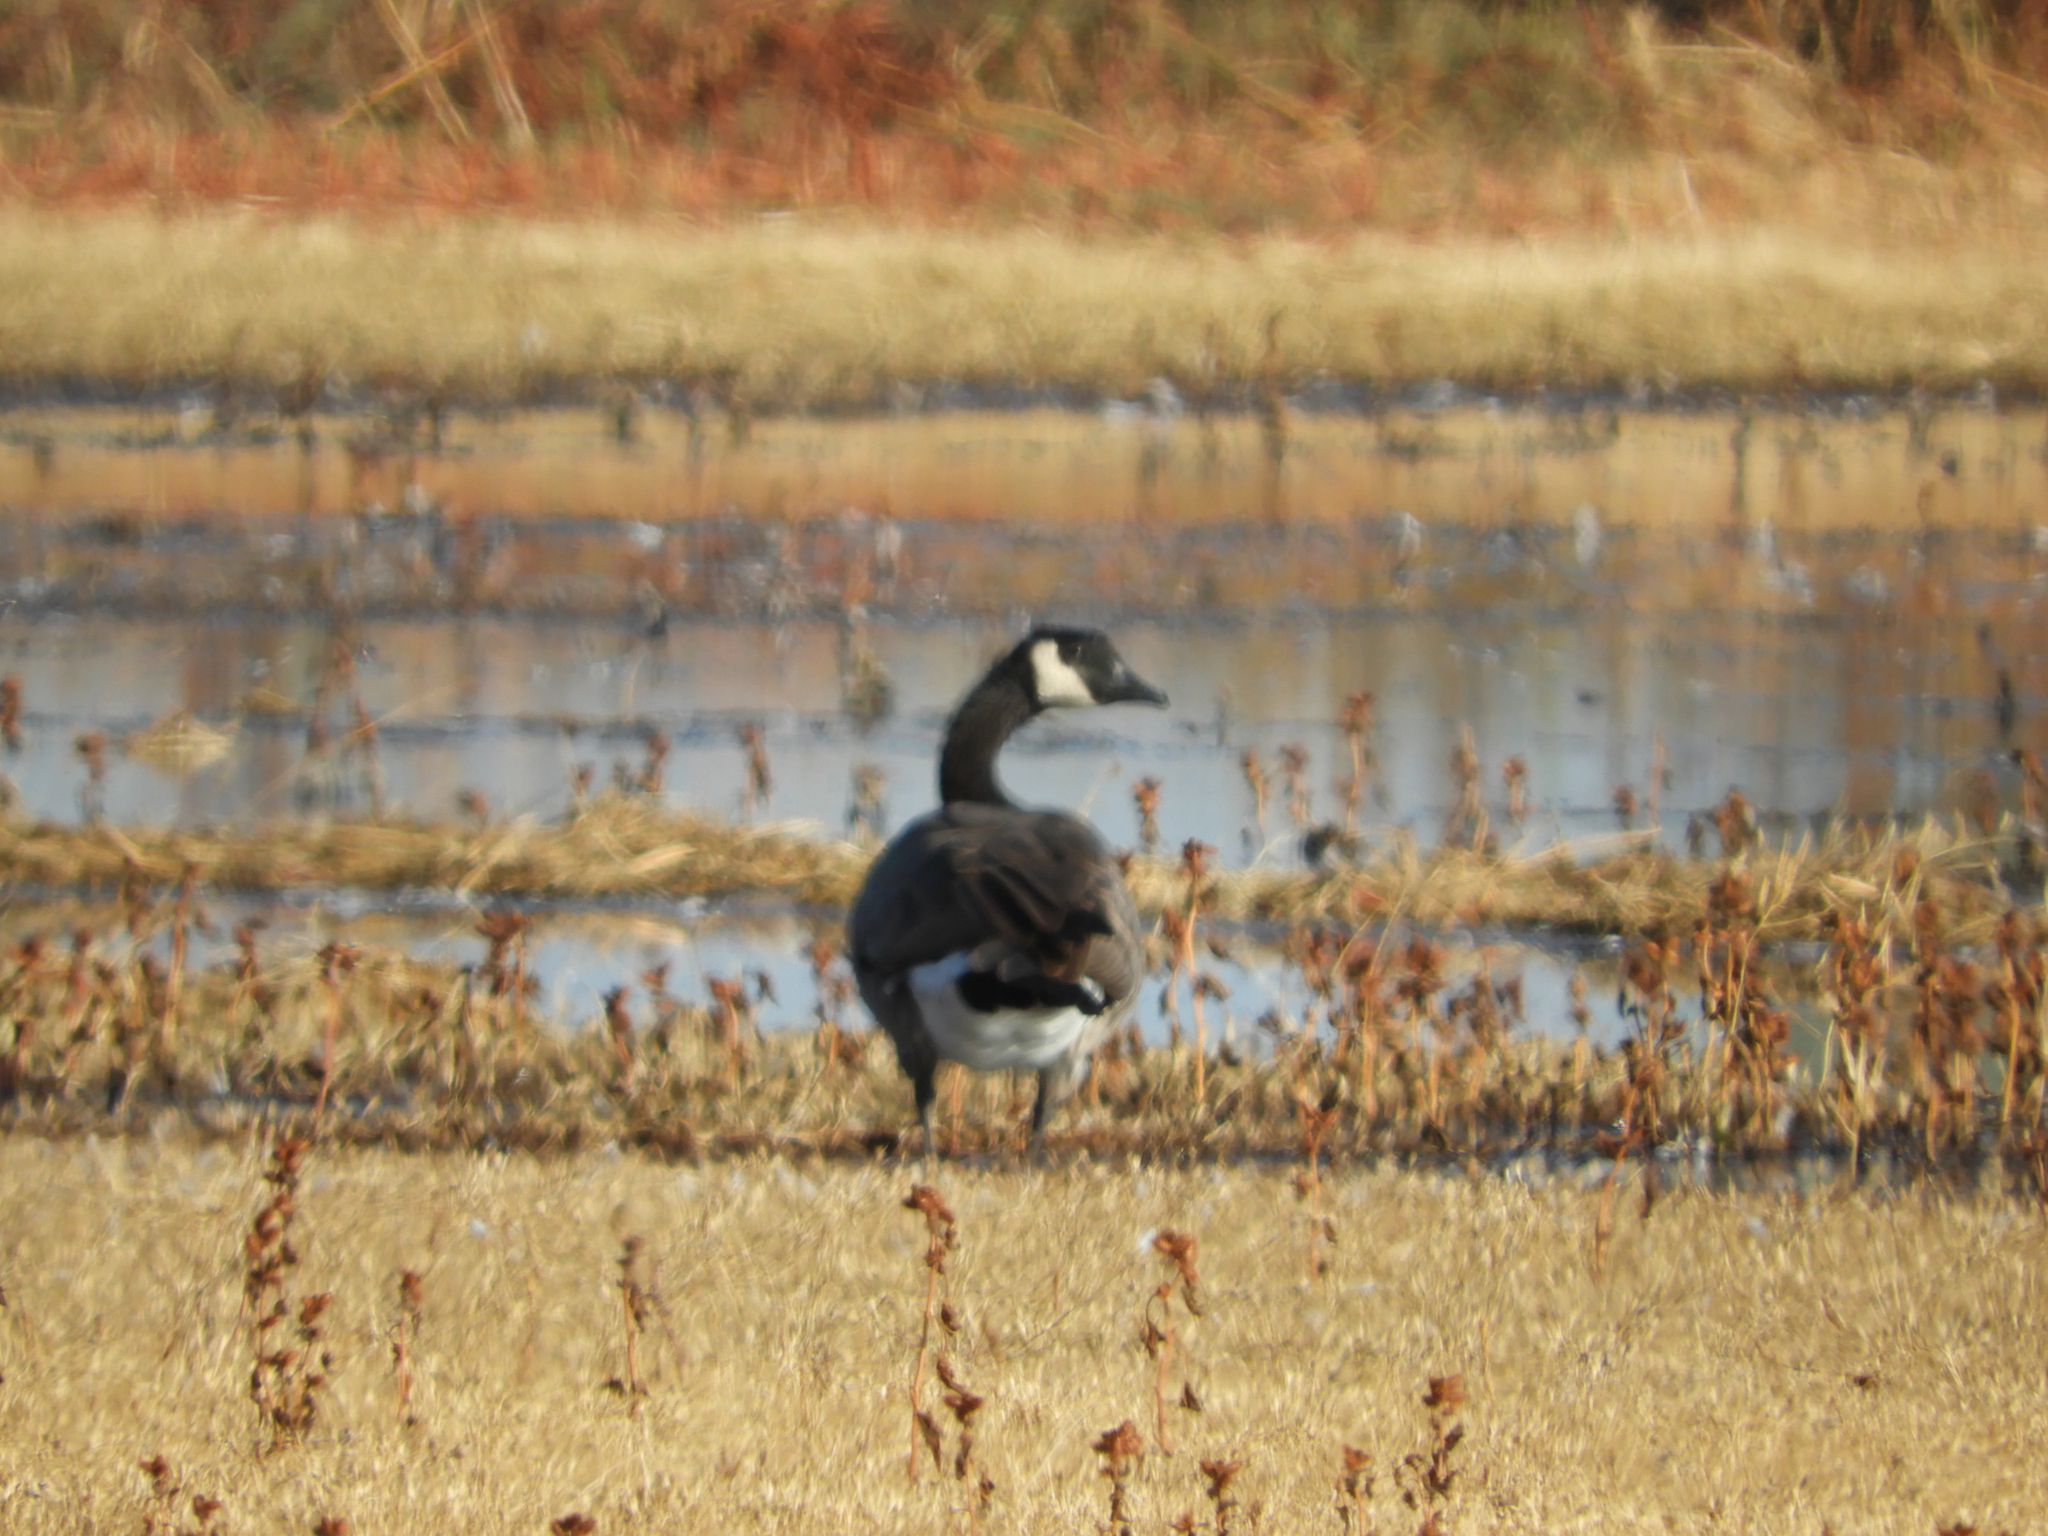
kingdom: Animalia
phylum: Chordata
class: Aves
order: Anseriformes
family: Anatidae
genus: Branta
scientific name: Branta canadensis
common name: Canada goose
